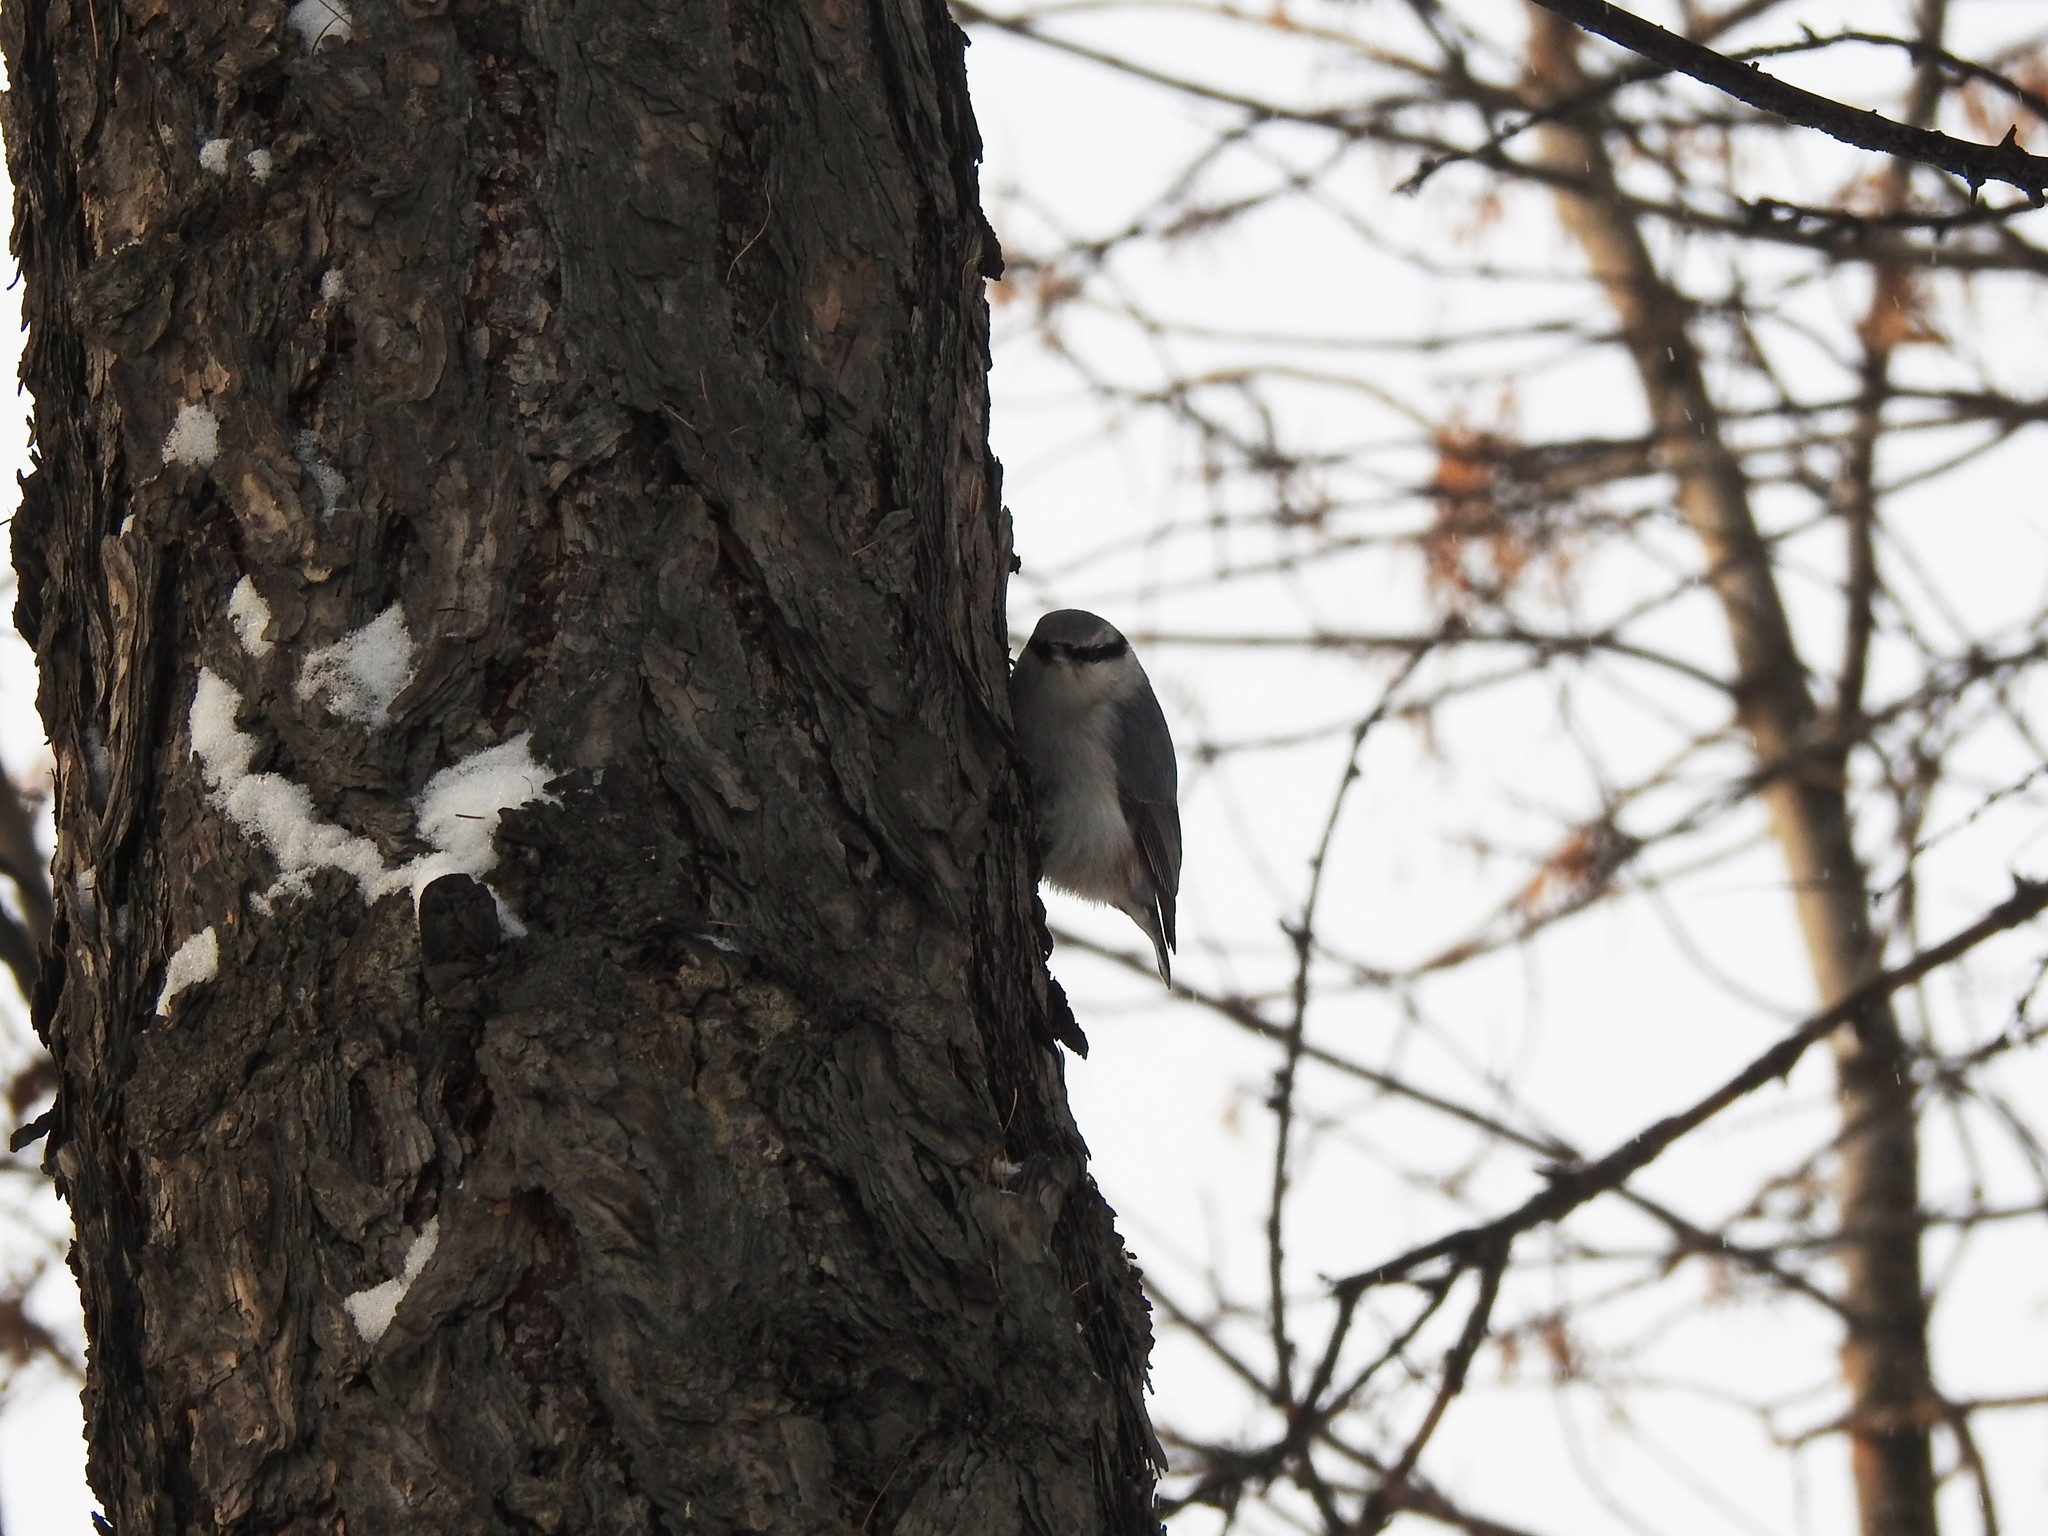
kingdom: Animalia
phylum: Chordata
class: Aves
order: Passeriformes
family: Sittidae
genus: Sitta
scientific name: Sitta europaea
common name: Eurasian nuthatch
